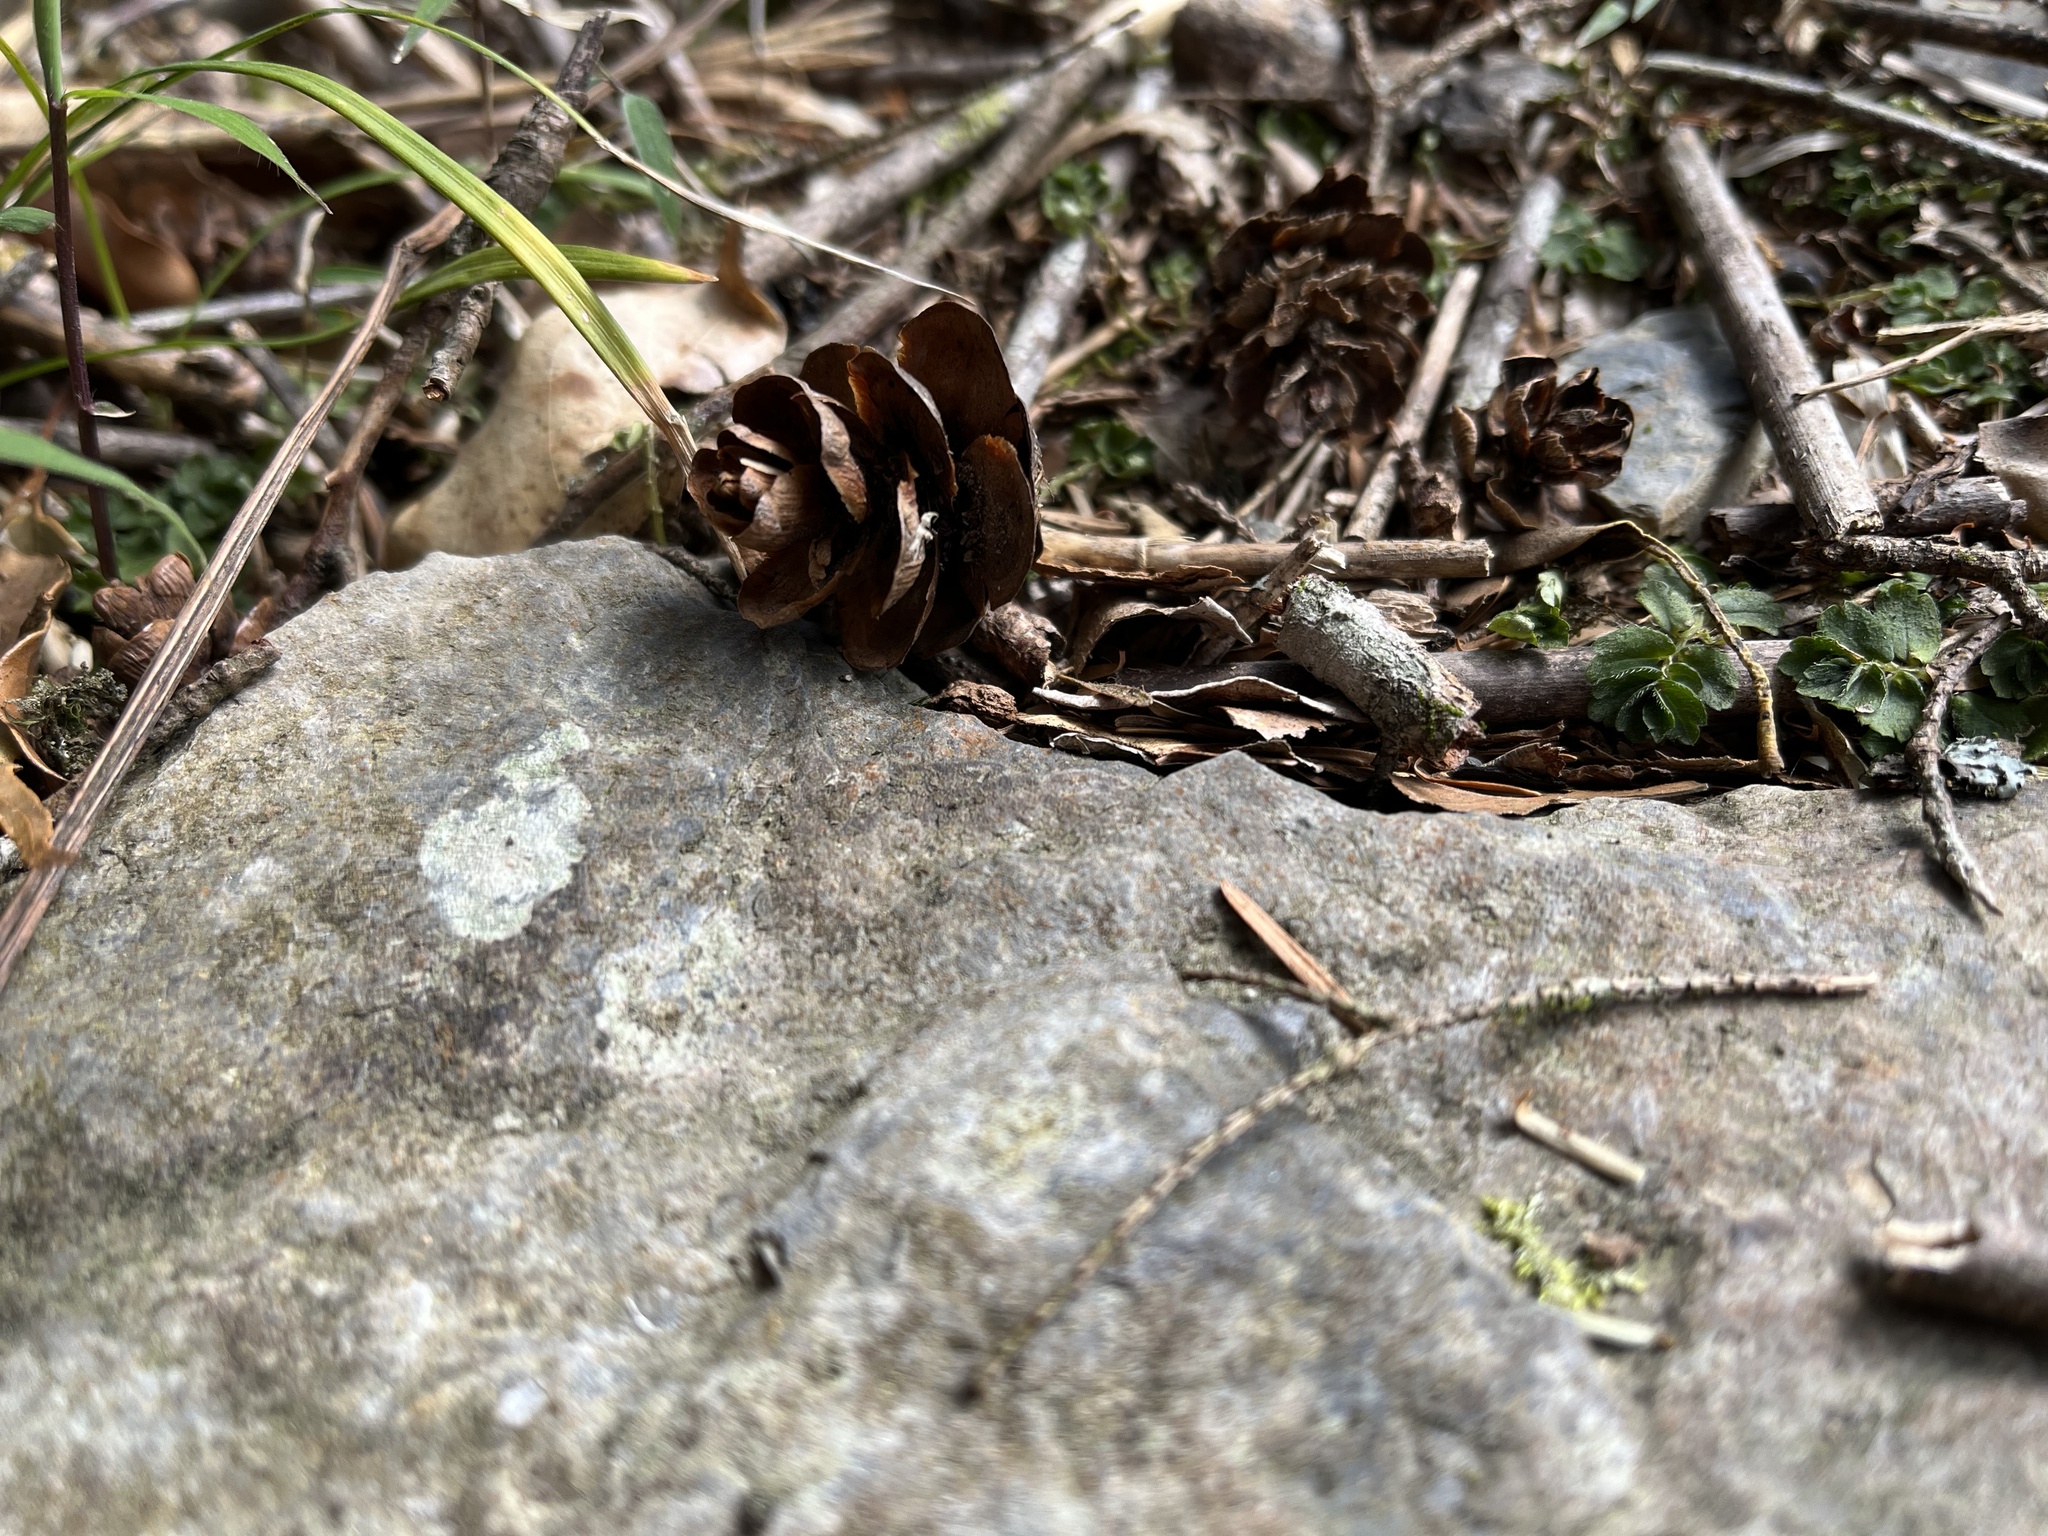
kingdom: Plantae
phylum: Tracheophyta
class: Pinopsida
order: Pinales
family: Pinaceae
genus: Tsuga
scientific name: Tsuga chinensis
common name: Chinese hemlock
